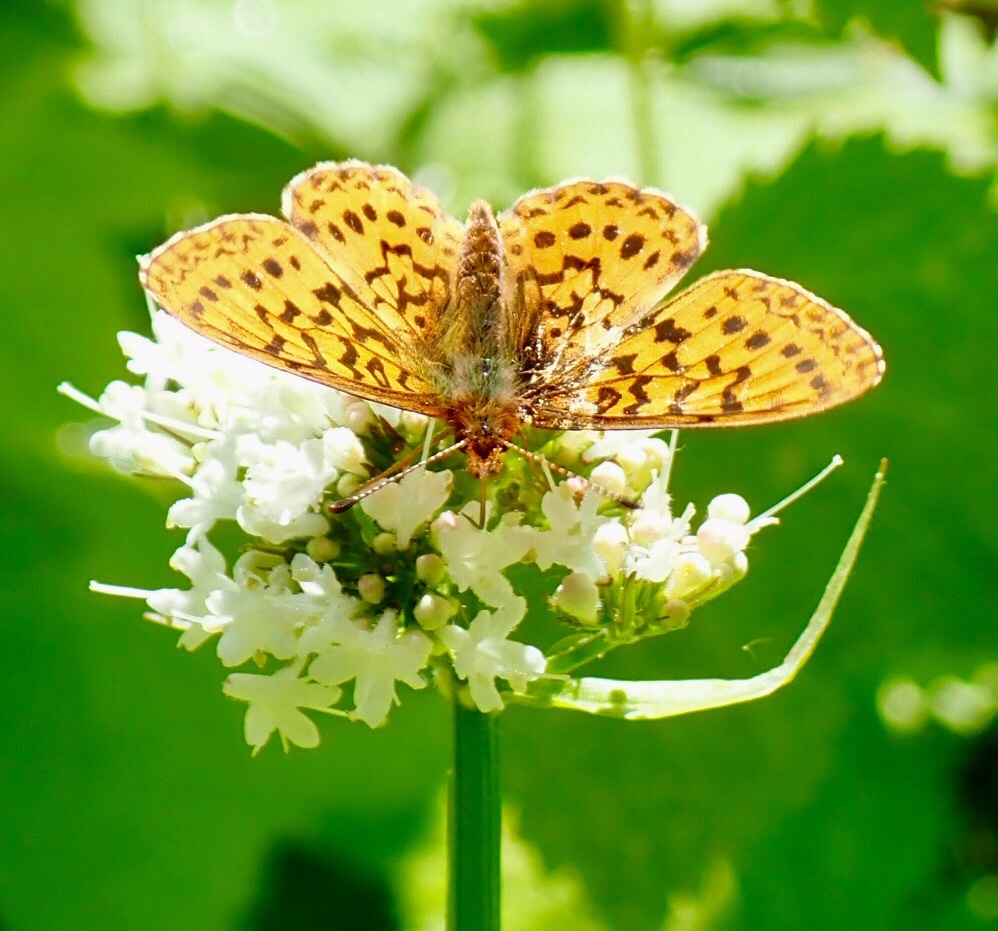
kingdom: Animalia
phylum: Arthropoda
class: Insecta
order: Lepidoptera
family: Nymphalidae
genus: Boloria
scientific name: Boloria epithore
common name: Pacific fritillary
